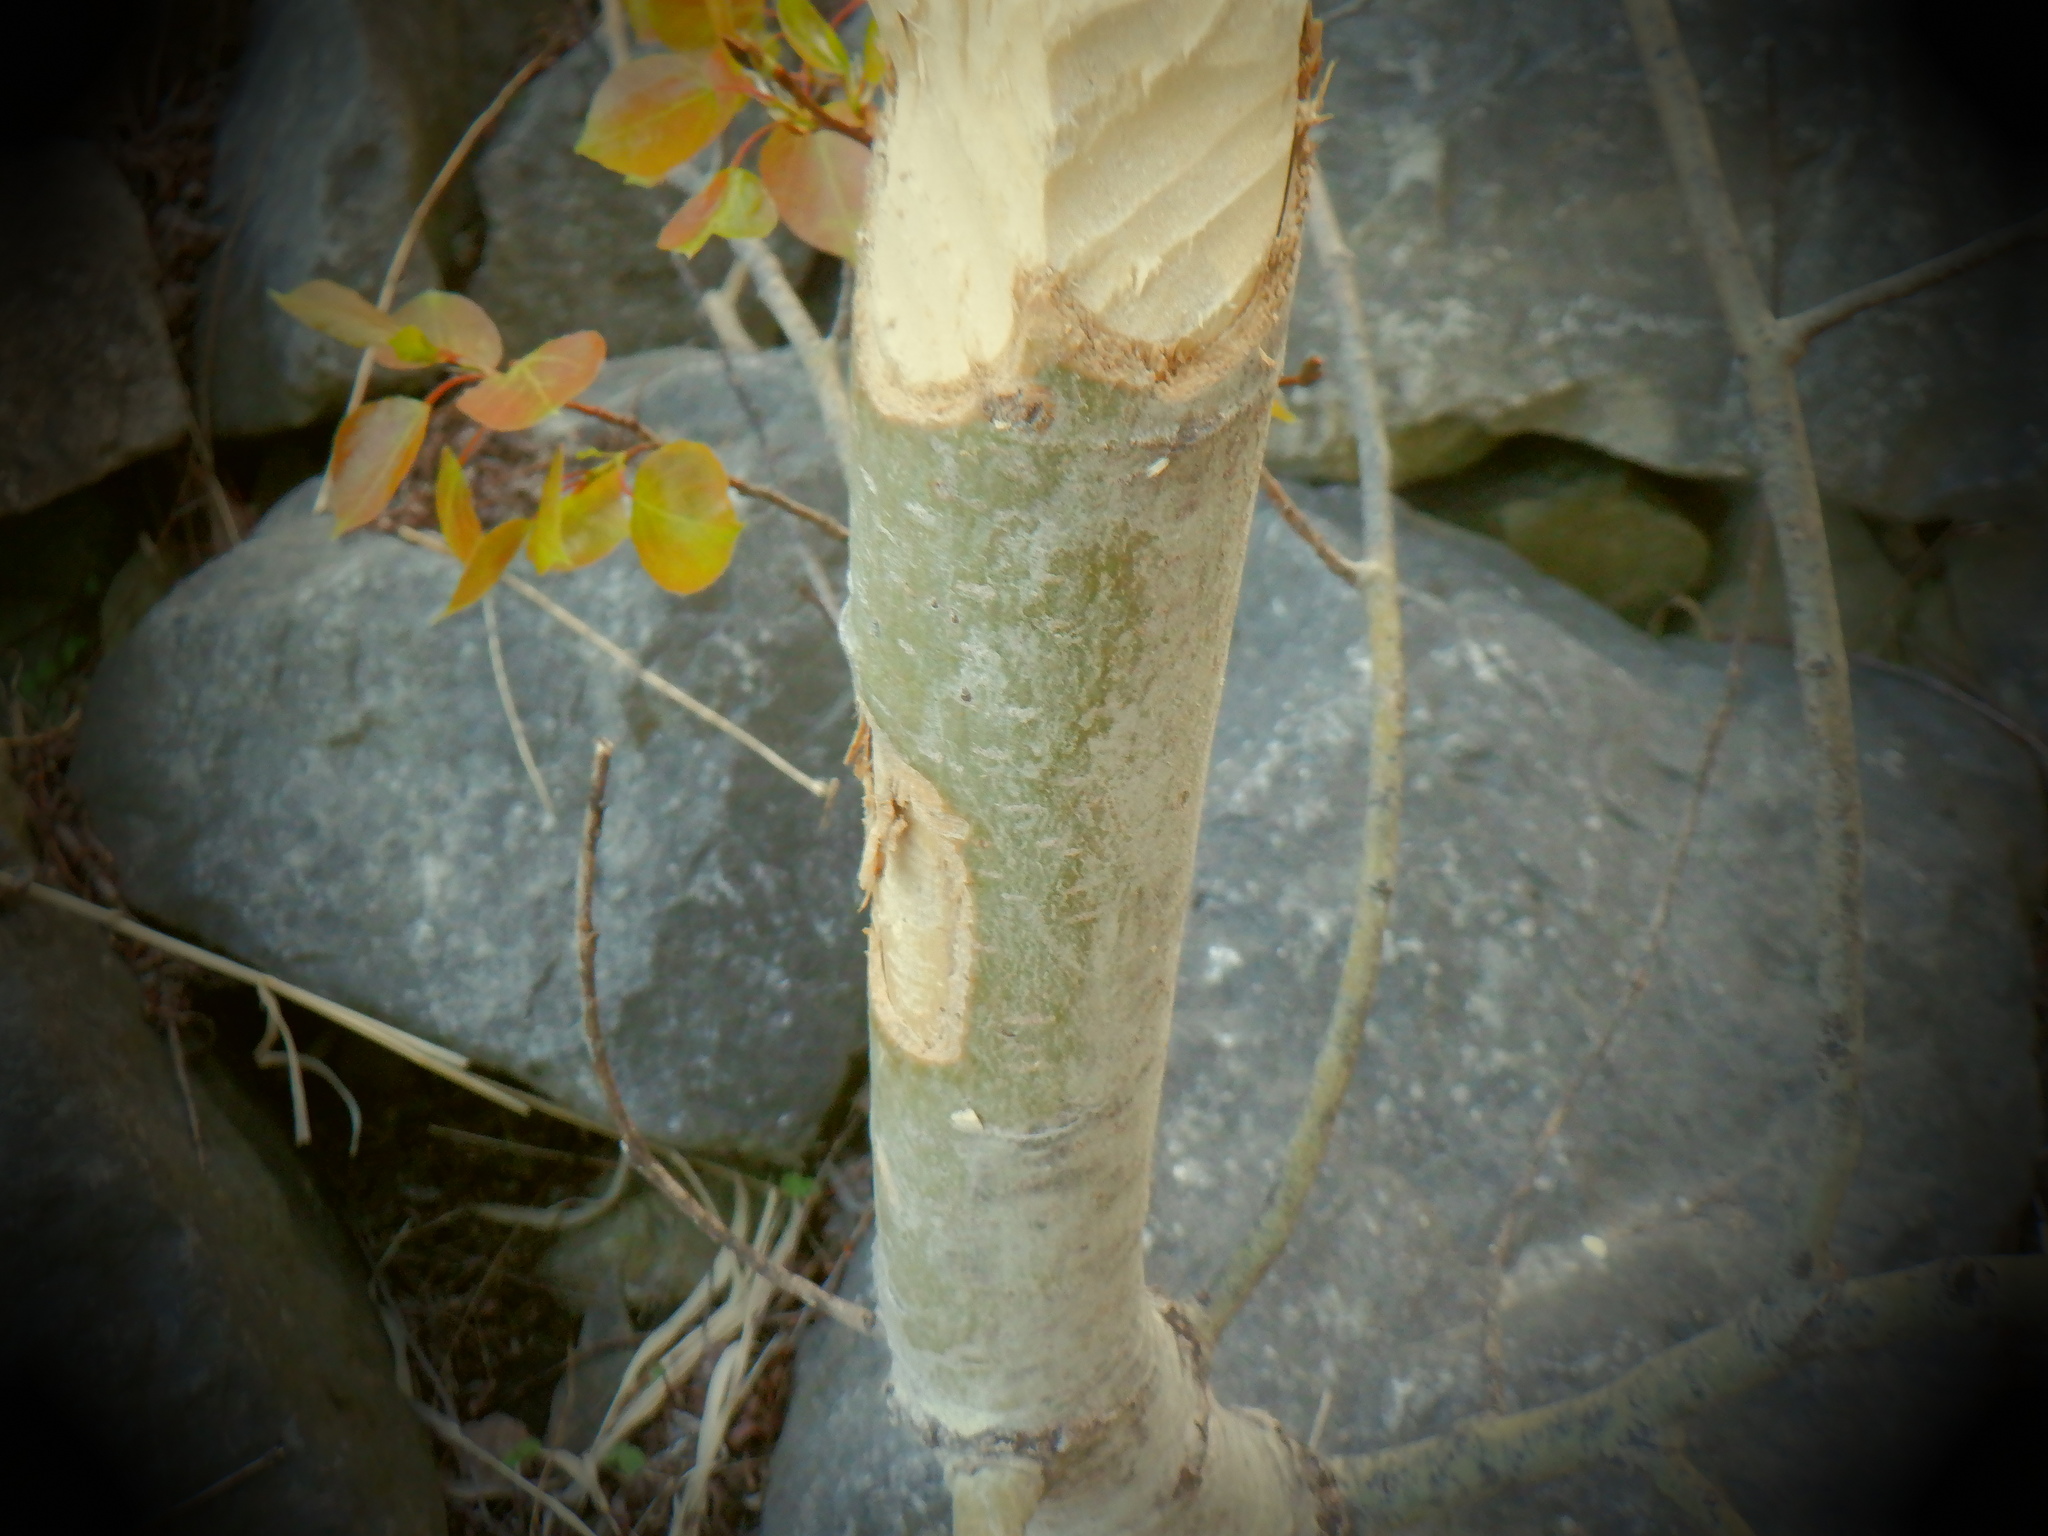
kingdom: Animalia
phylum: Chordata
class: Mammalia
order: Rodentia
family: Castoridae
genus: Castor
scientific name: Castor canadensis
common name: American beaver
